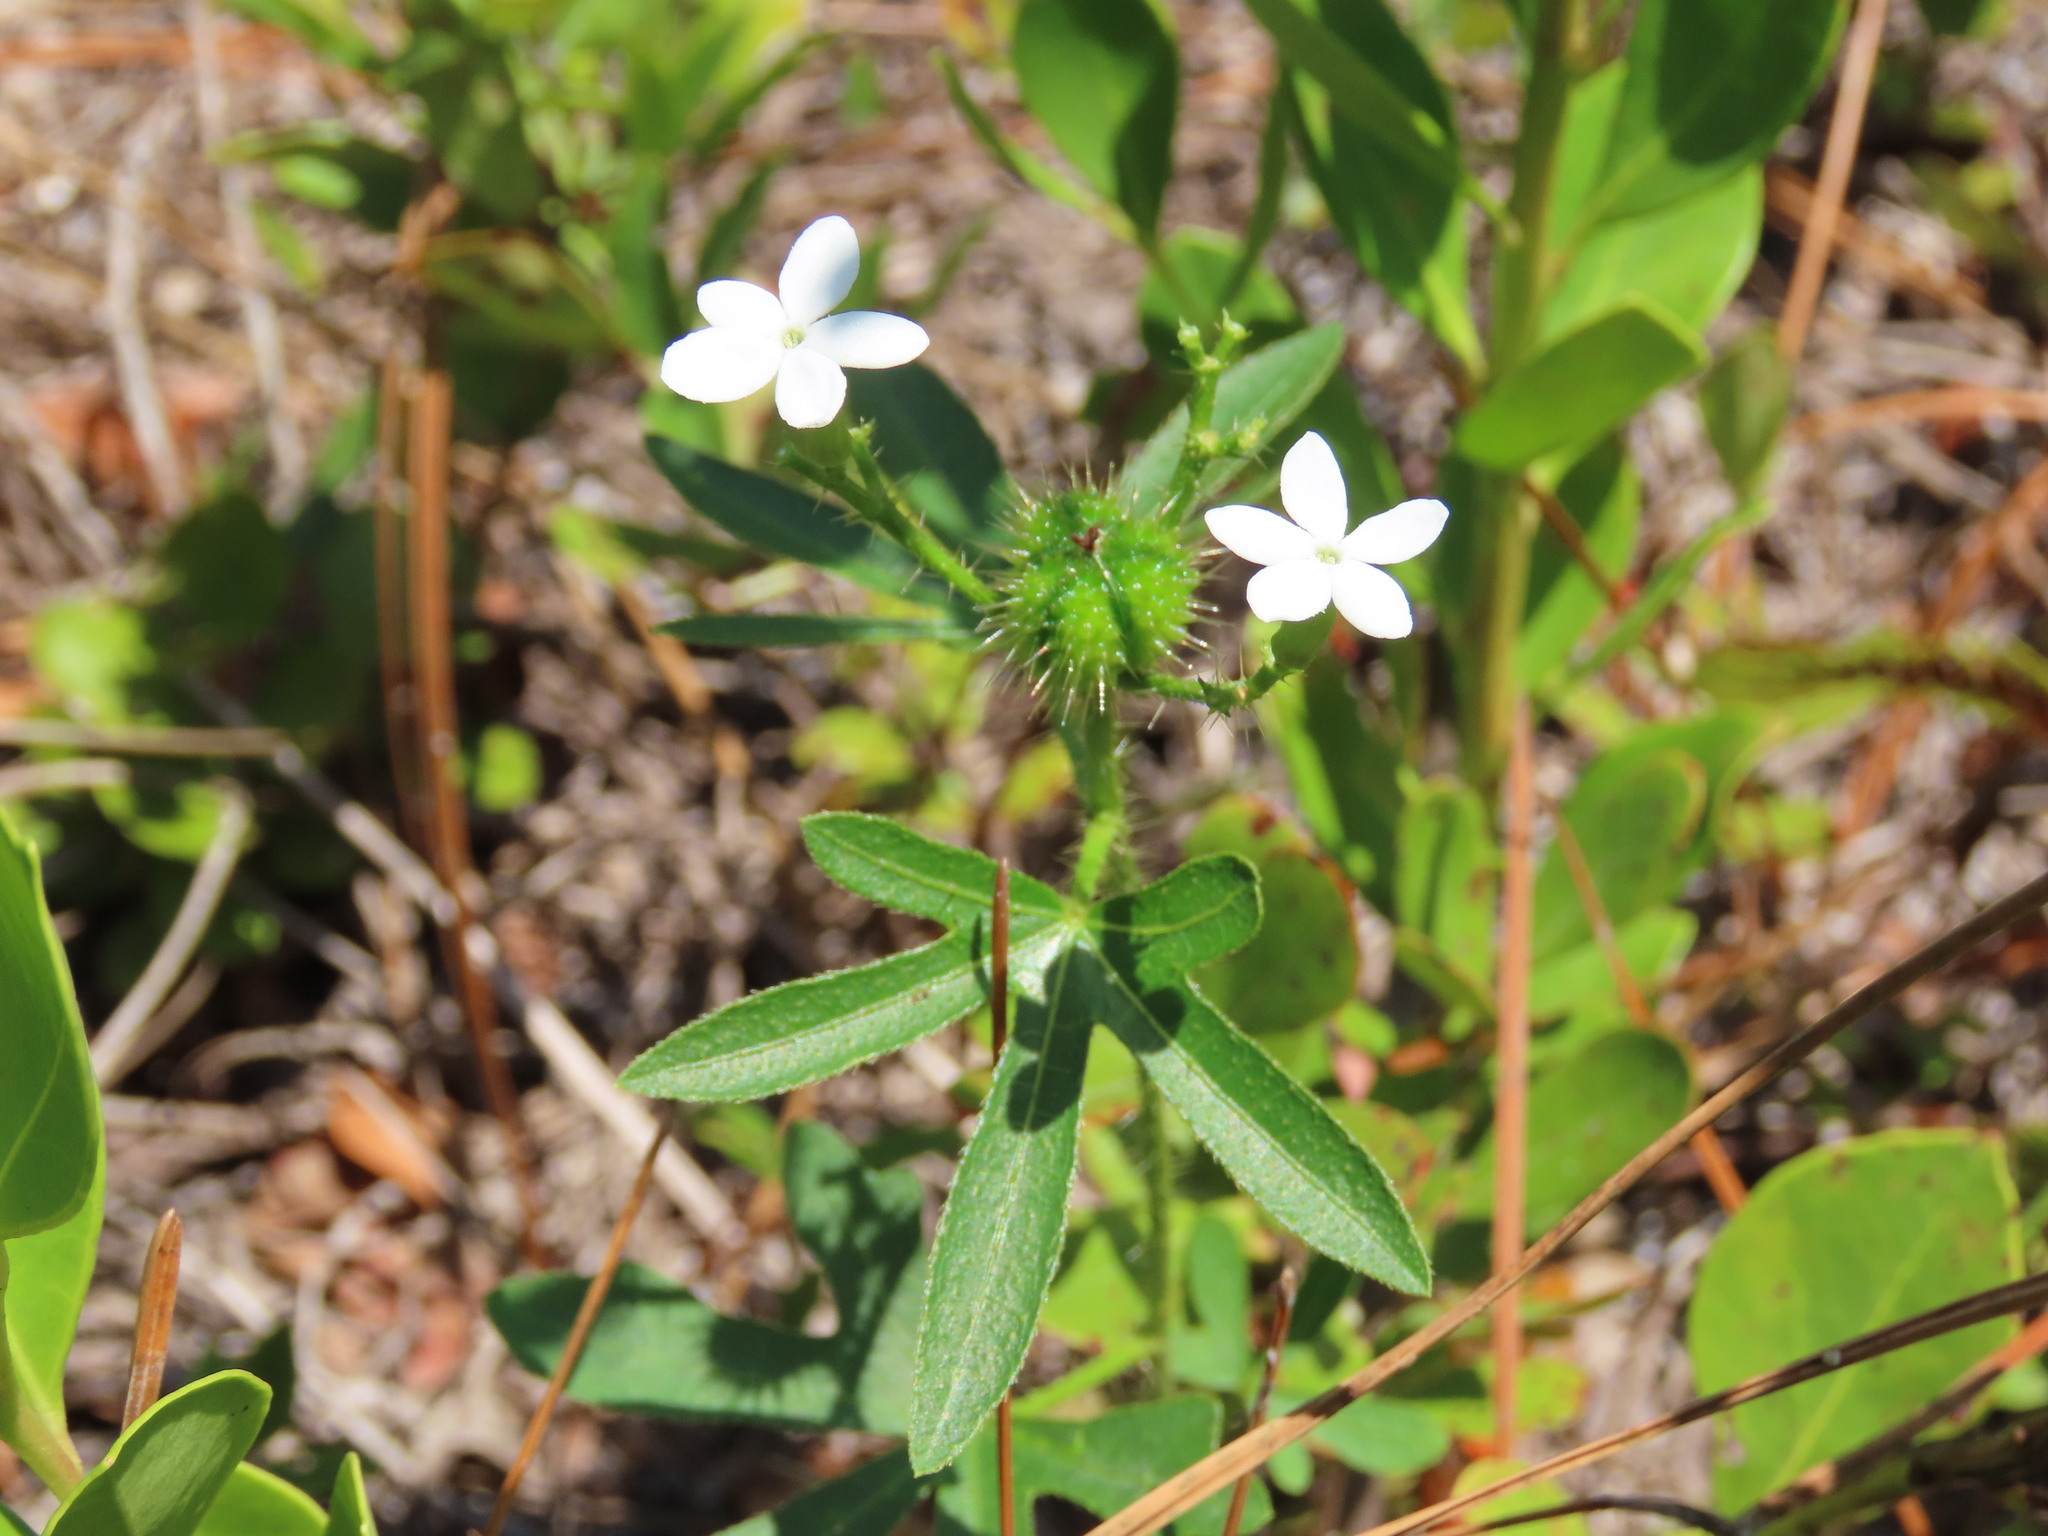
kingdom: Plantae
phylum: Tracheophyta
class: Magnoliopsida
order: Malpighiales
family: Euphorbiaceae
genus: Cnidoscolus
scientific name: Cnidoscolus stimulosus
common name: Bull-nettle
